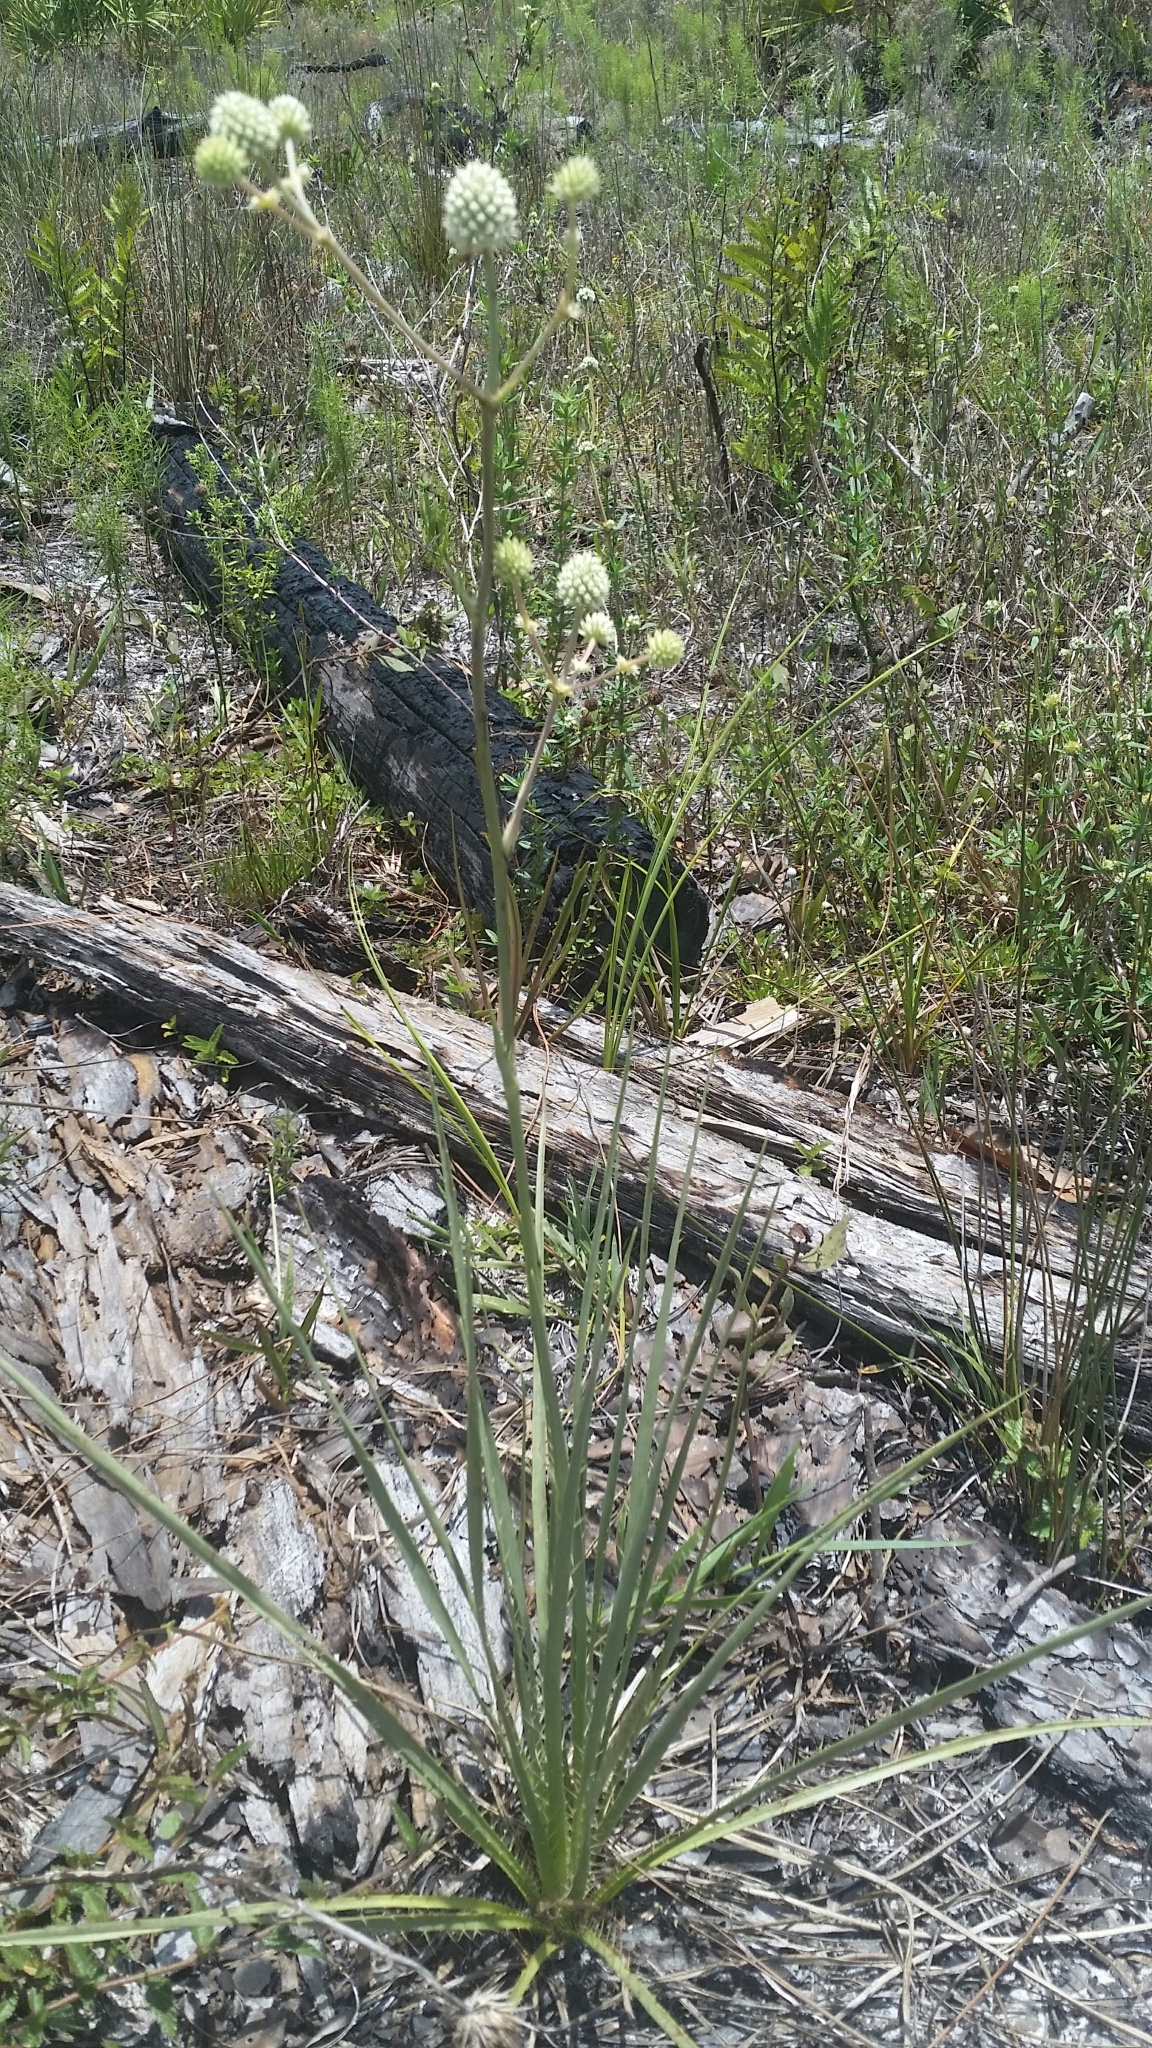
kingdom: Plantae
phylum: Tracheophyta
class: Magnoliopsida
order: Apiales
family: Apiaceae
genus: Eryngium
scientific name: Eryngium yuccifolium
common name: Button eryngo
